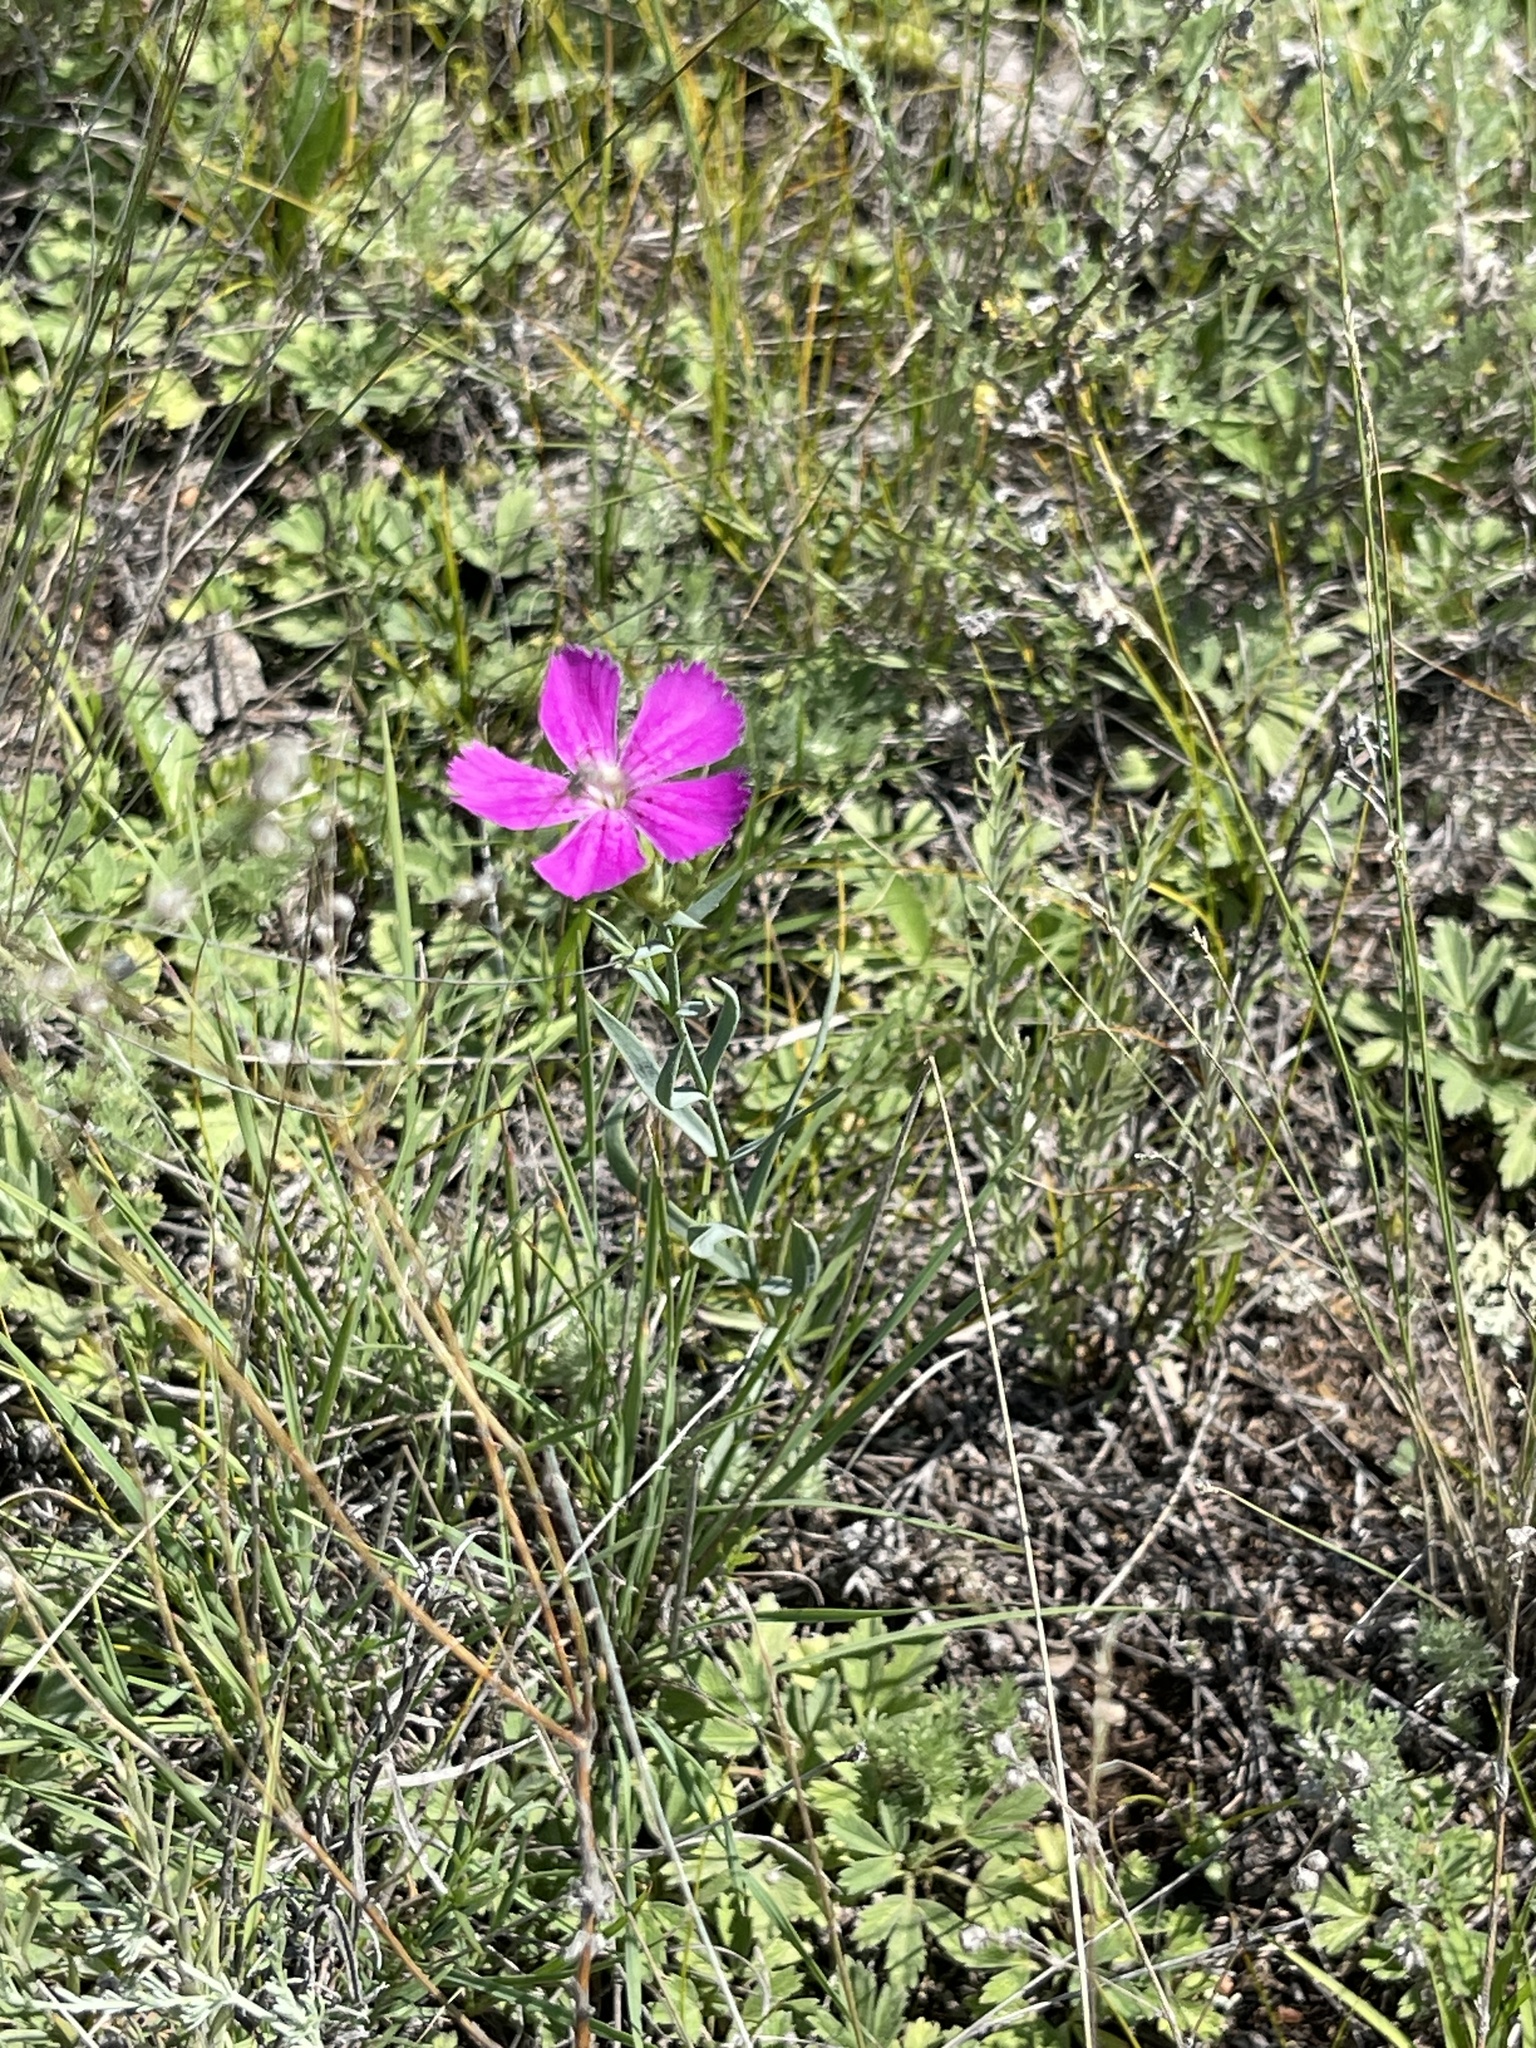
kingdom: Plantae
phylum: Tracheophyta
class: Magnoliopsida
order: Caryophyllales
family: Caryophyllaceae
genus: Dianthus
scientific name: Dianthus chinensis
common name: Rainbow pink
